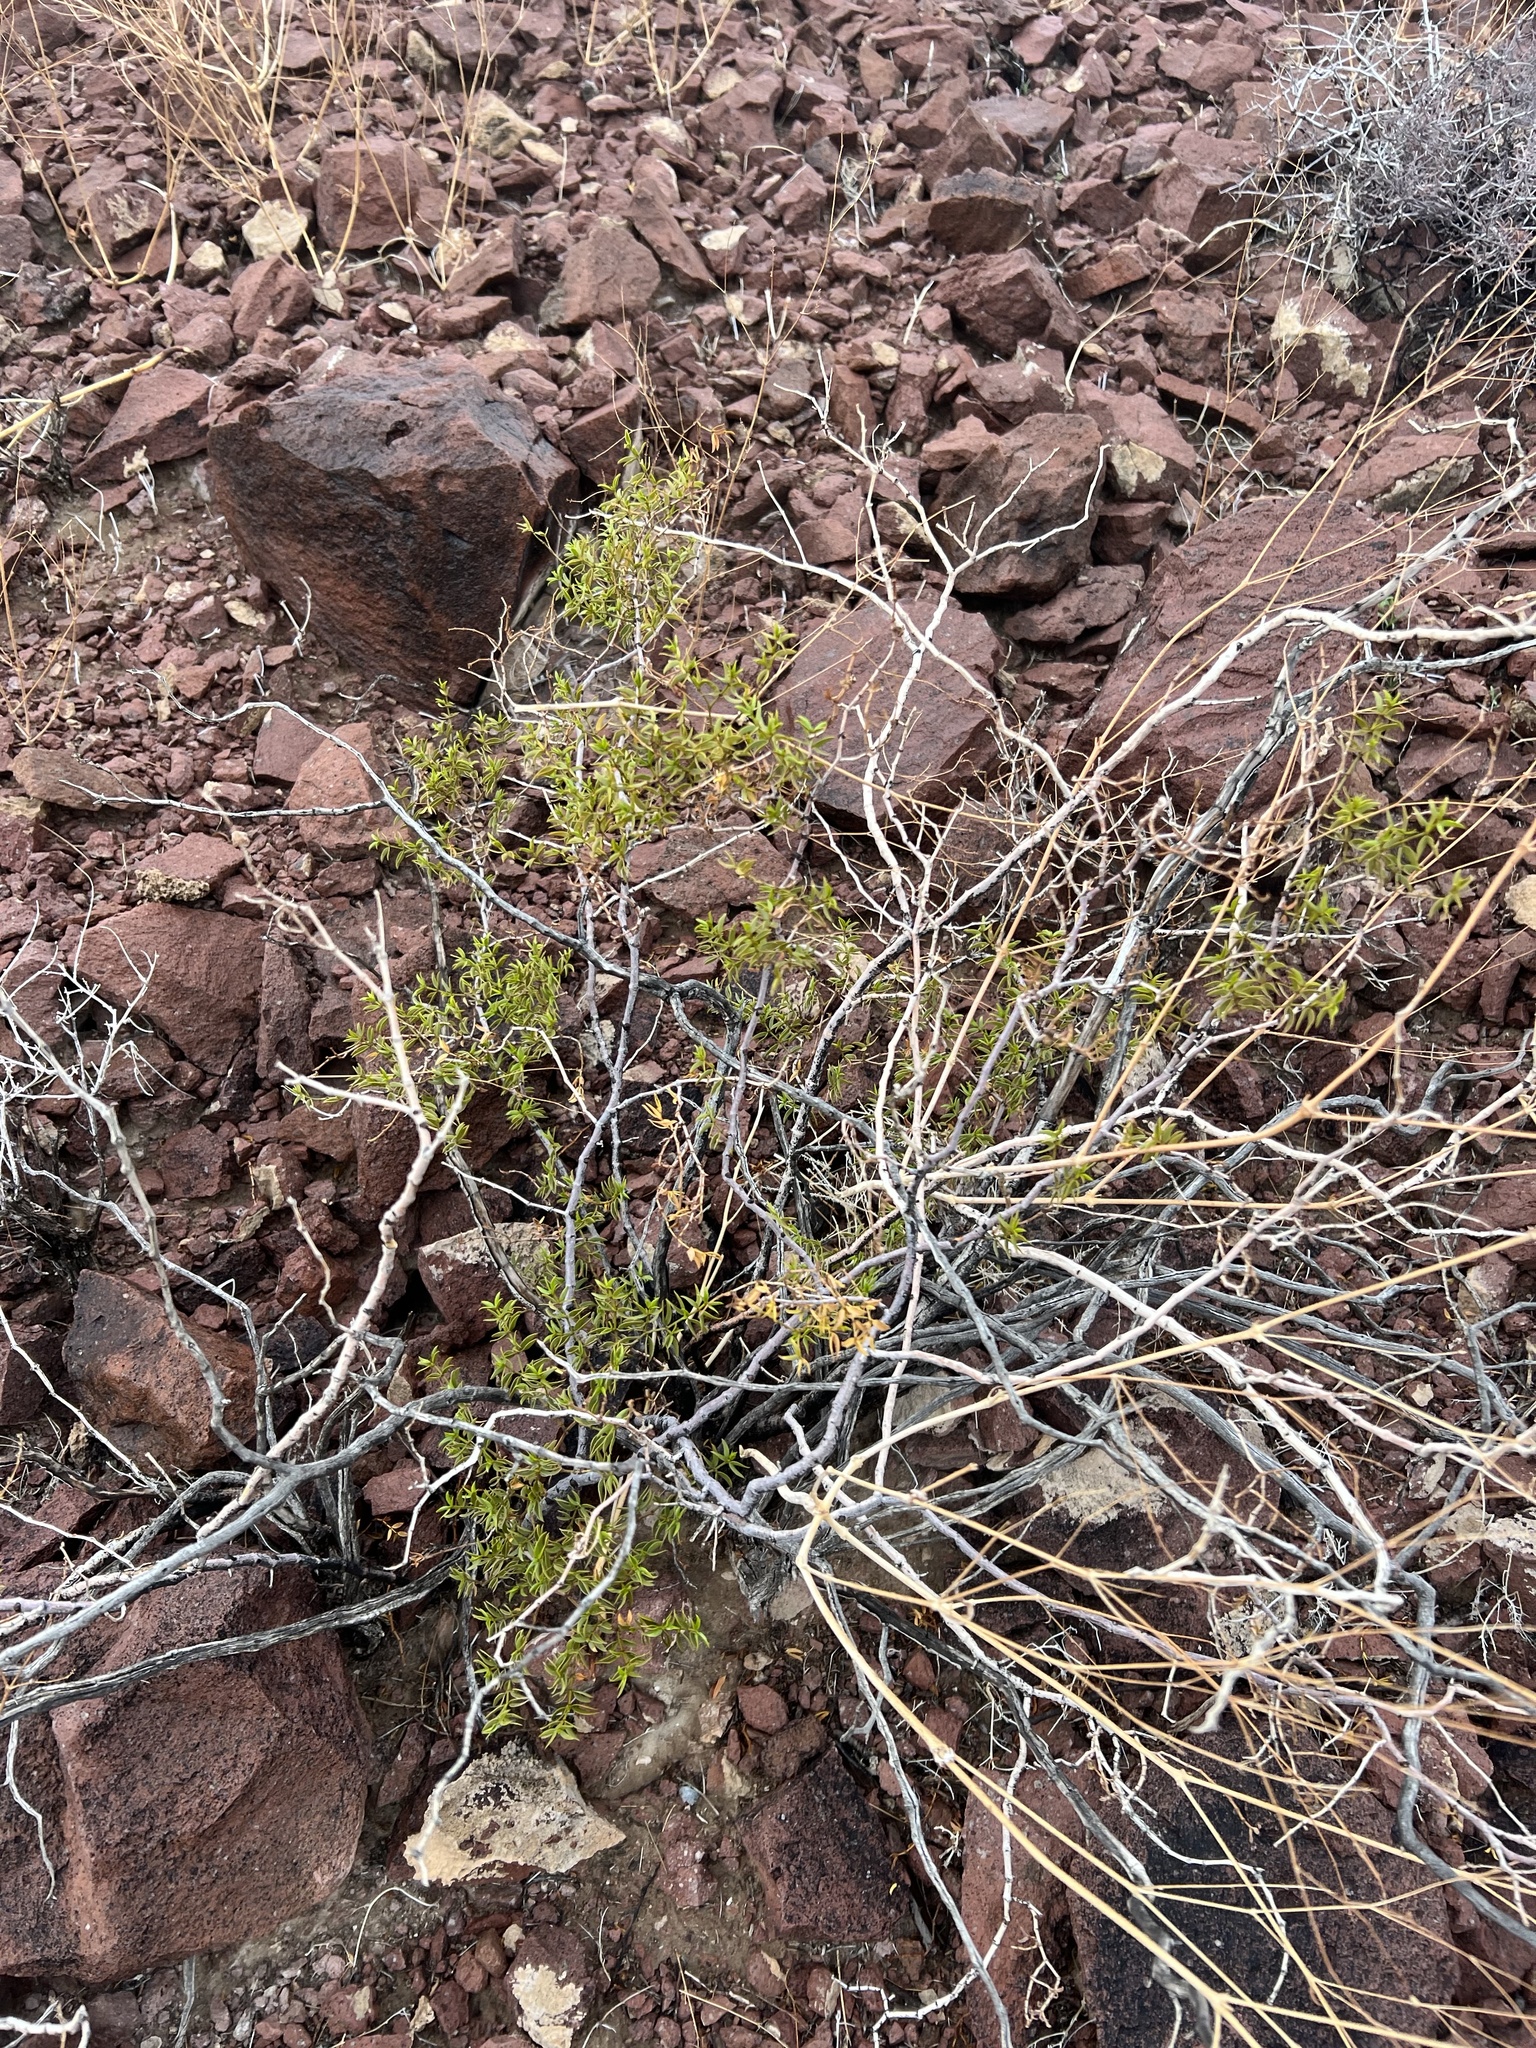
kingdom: Plantae
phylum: Tracheophyta
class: Magnoliopsida
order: Zygophyllales
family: Zygophyllaceae
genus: Larrea
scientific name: Larrea tridentata
